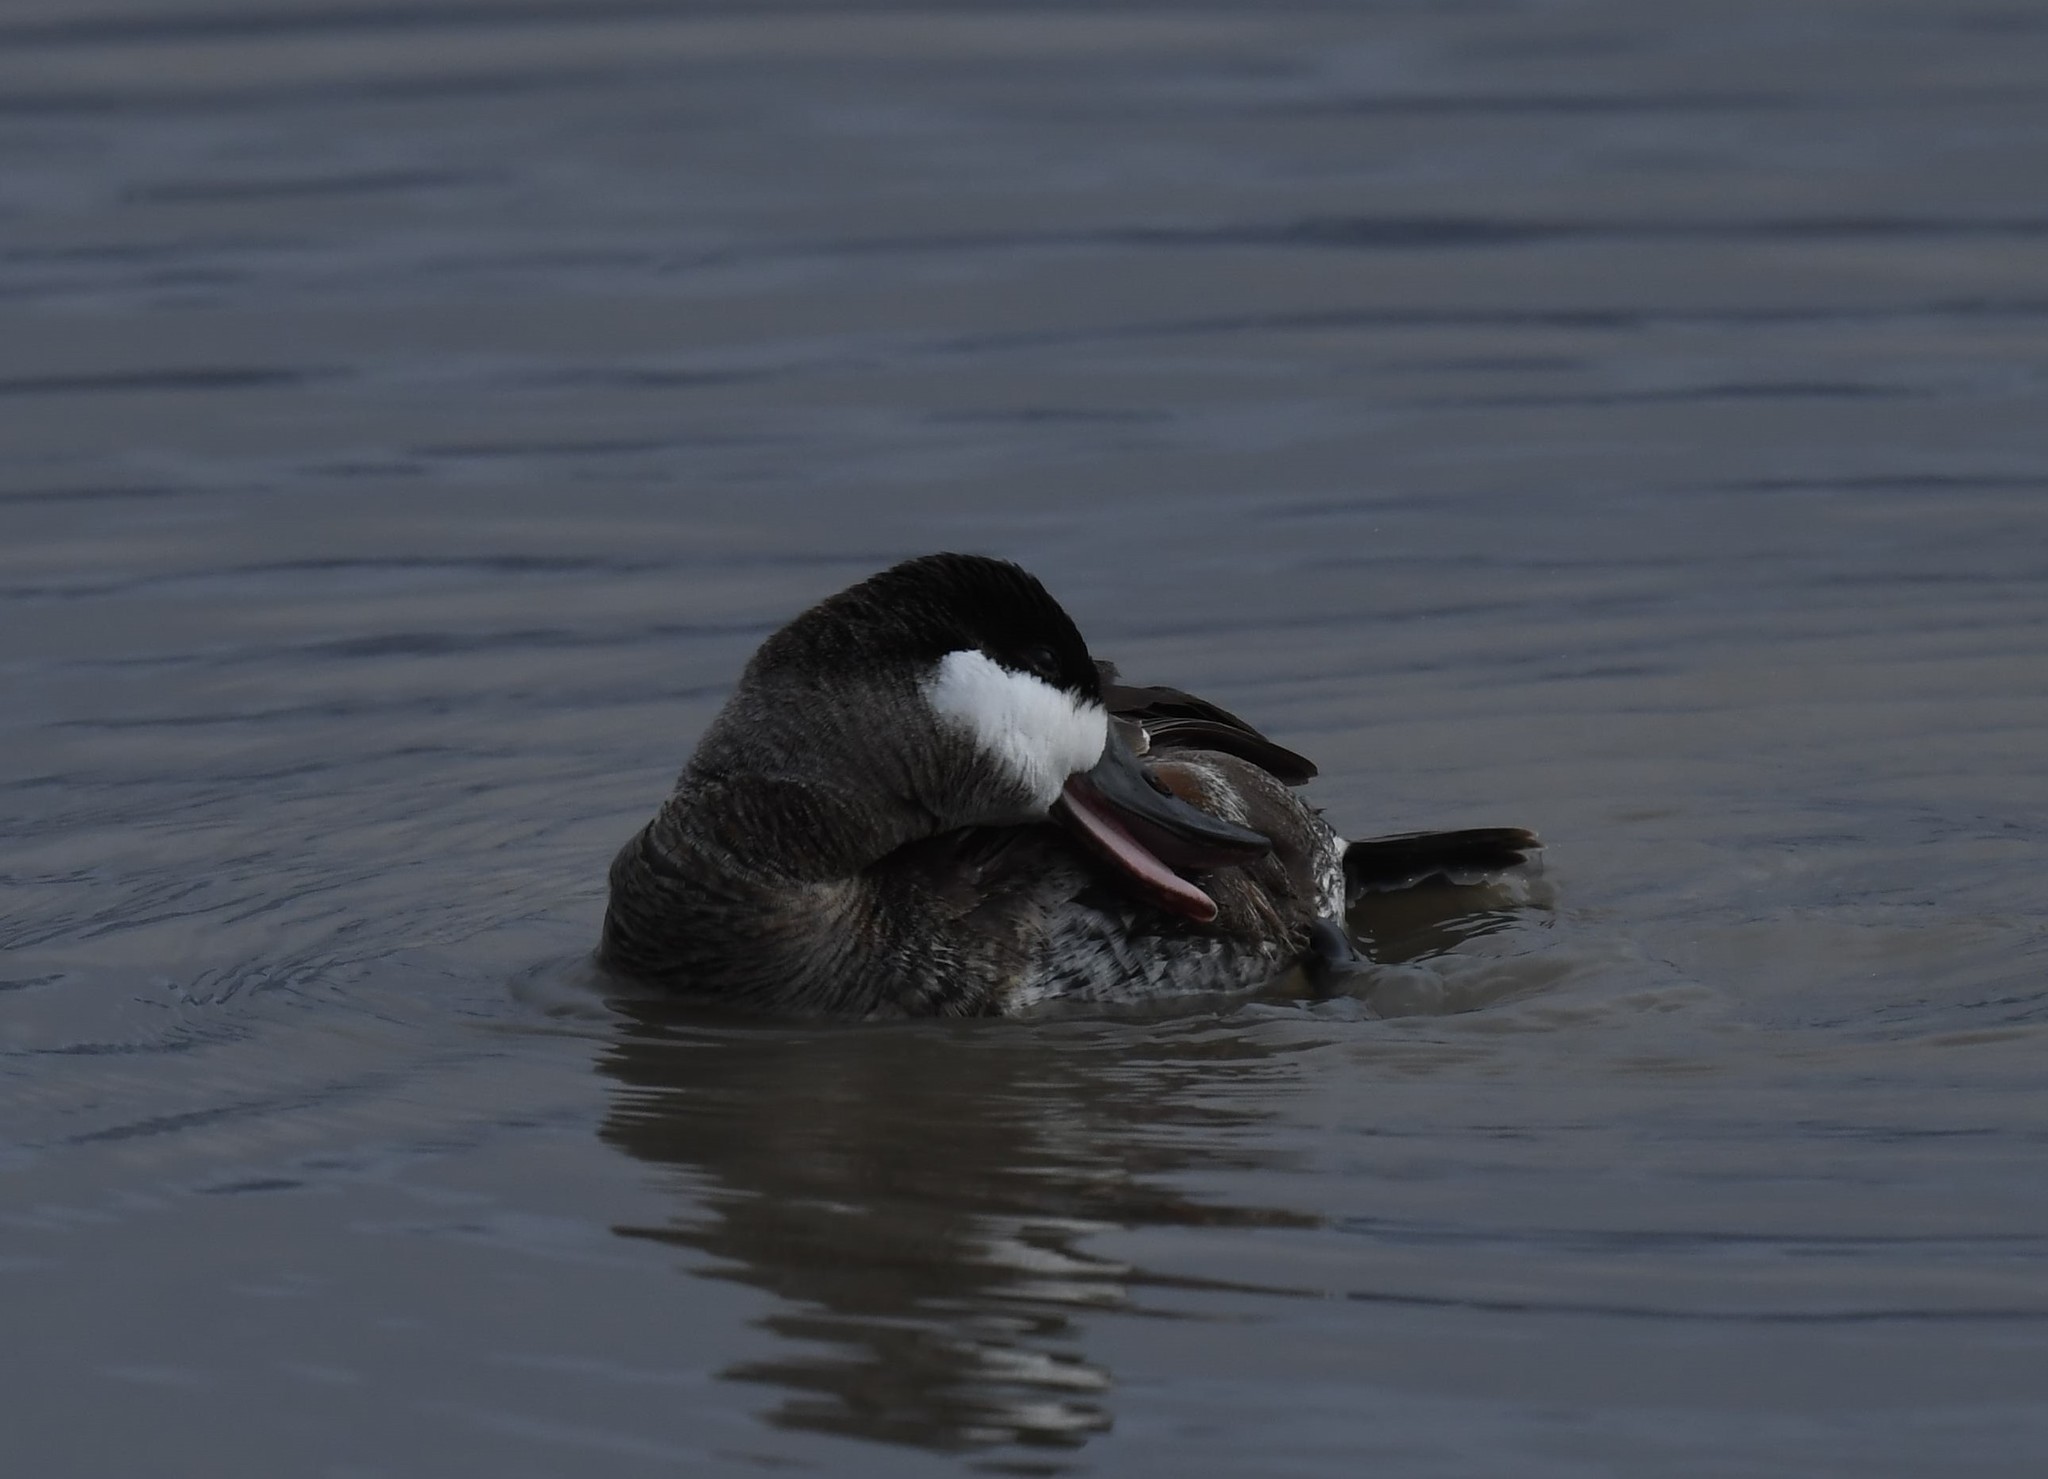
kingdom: Animalia
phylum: Chordata
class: Aves
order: Anseriformes
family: Anatidae
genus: Oxyura
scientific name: Oxyura jamaicensis
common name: Ruddy duck
